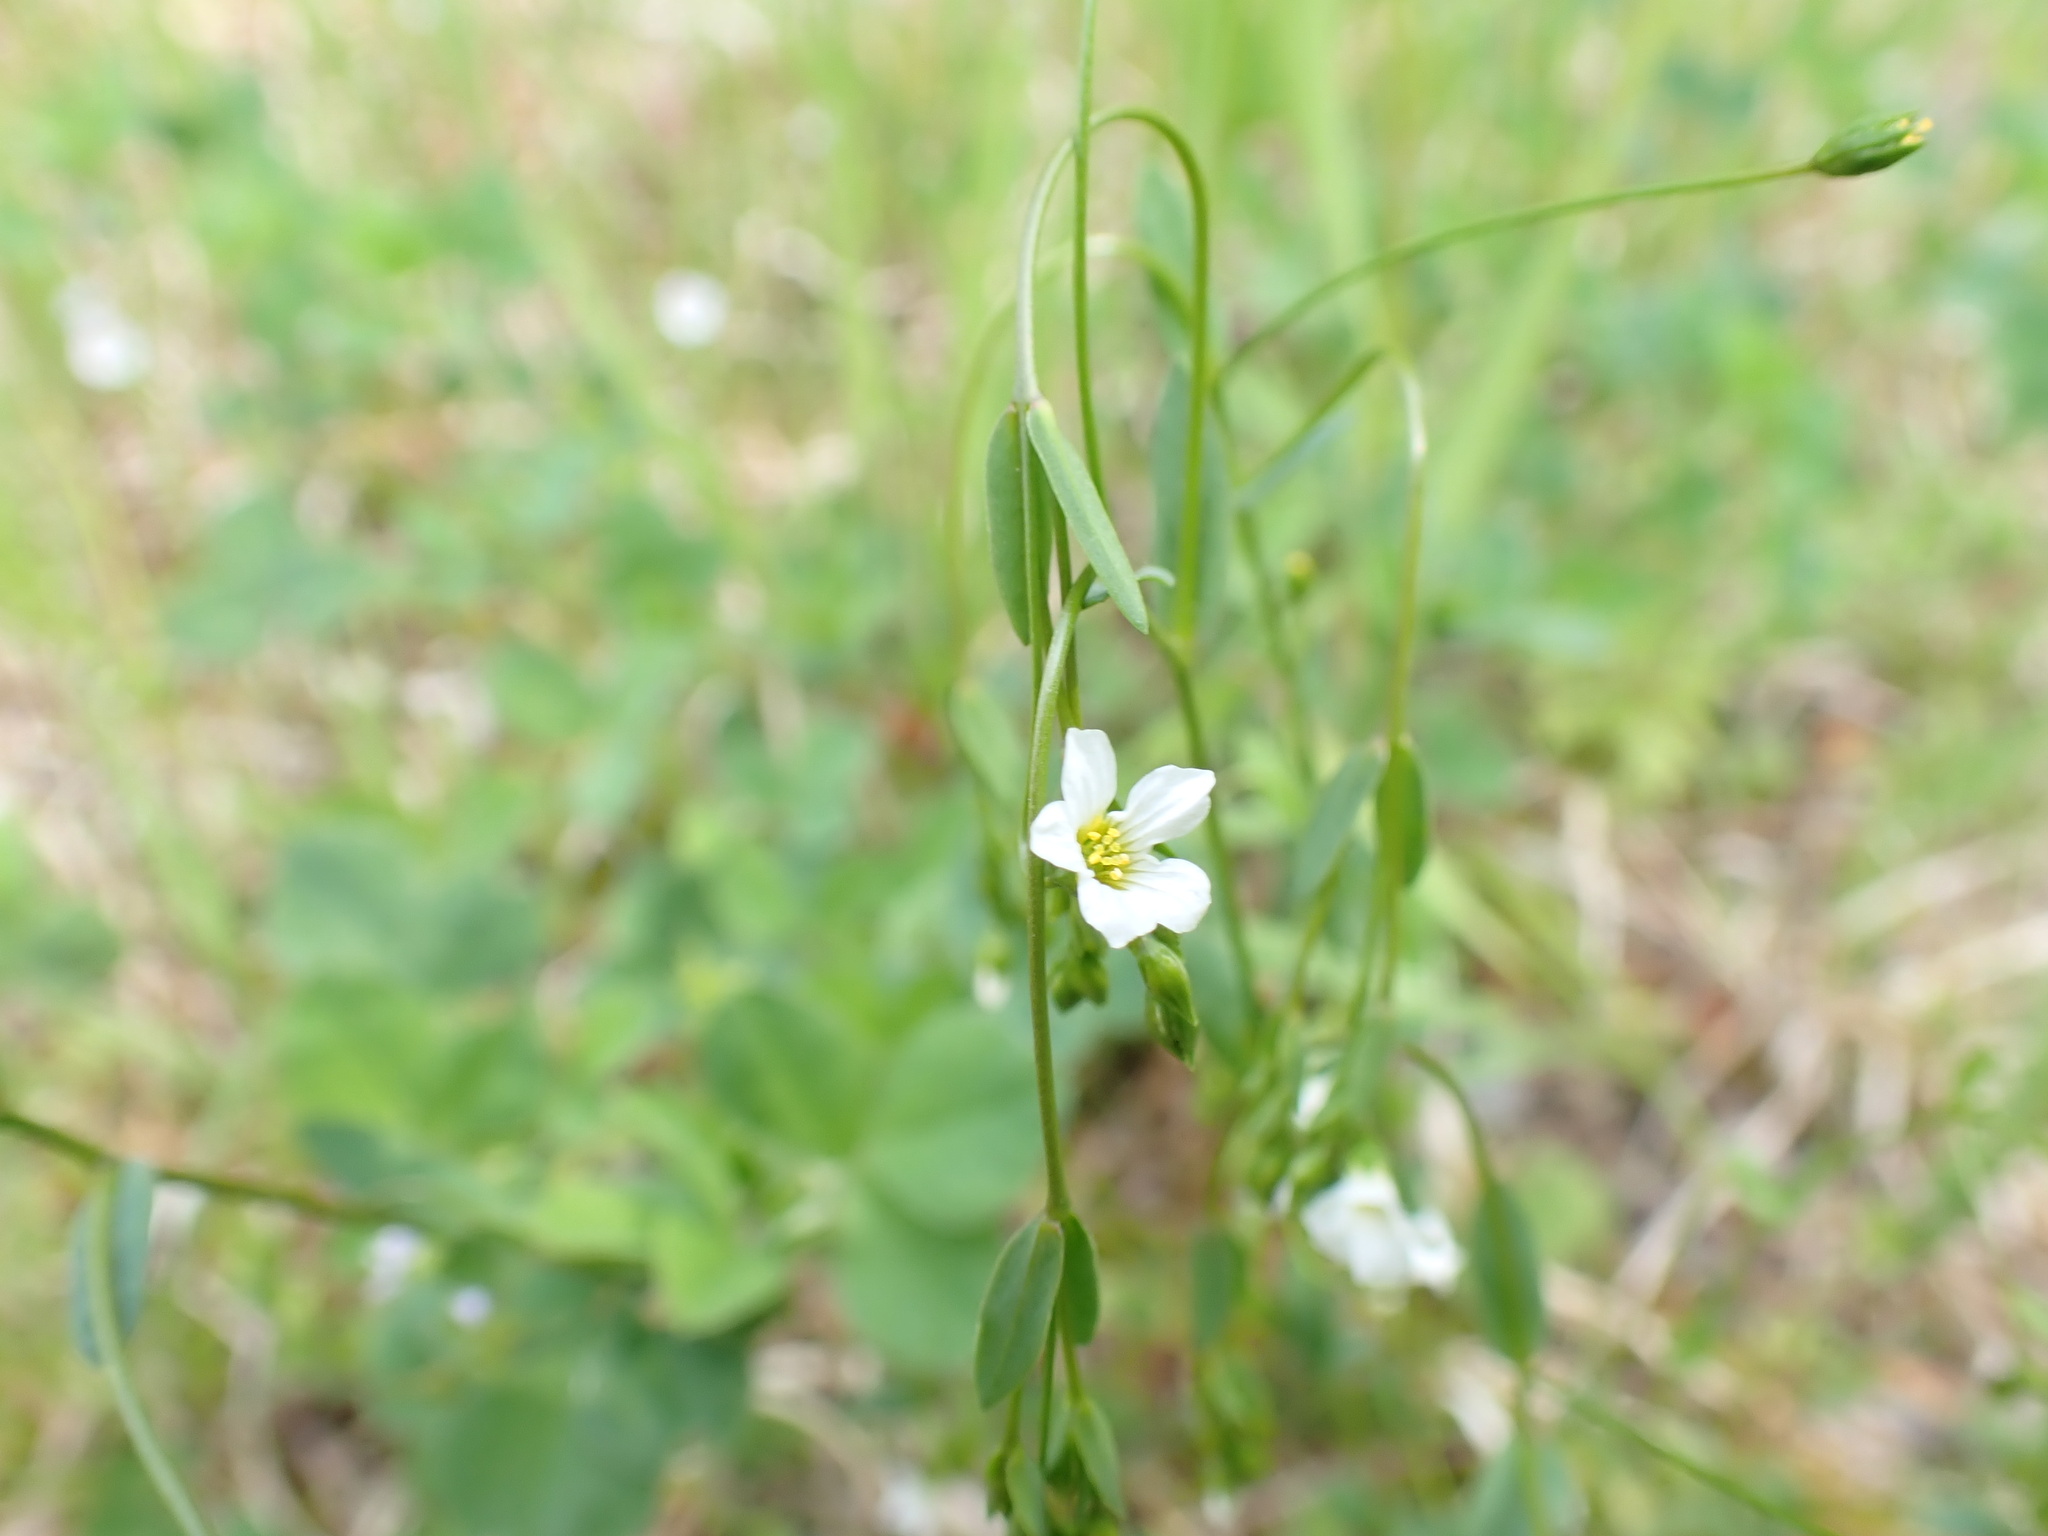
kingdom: Plantae
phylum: Tracheophyta
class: Magnoliopsida
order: Malpighiales
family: Linaceae
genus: Linum
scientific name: Linum catharticum
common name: Fairy flax
